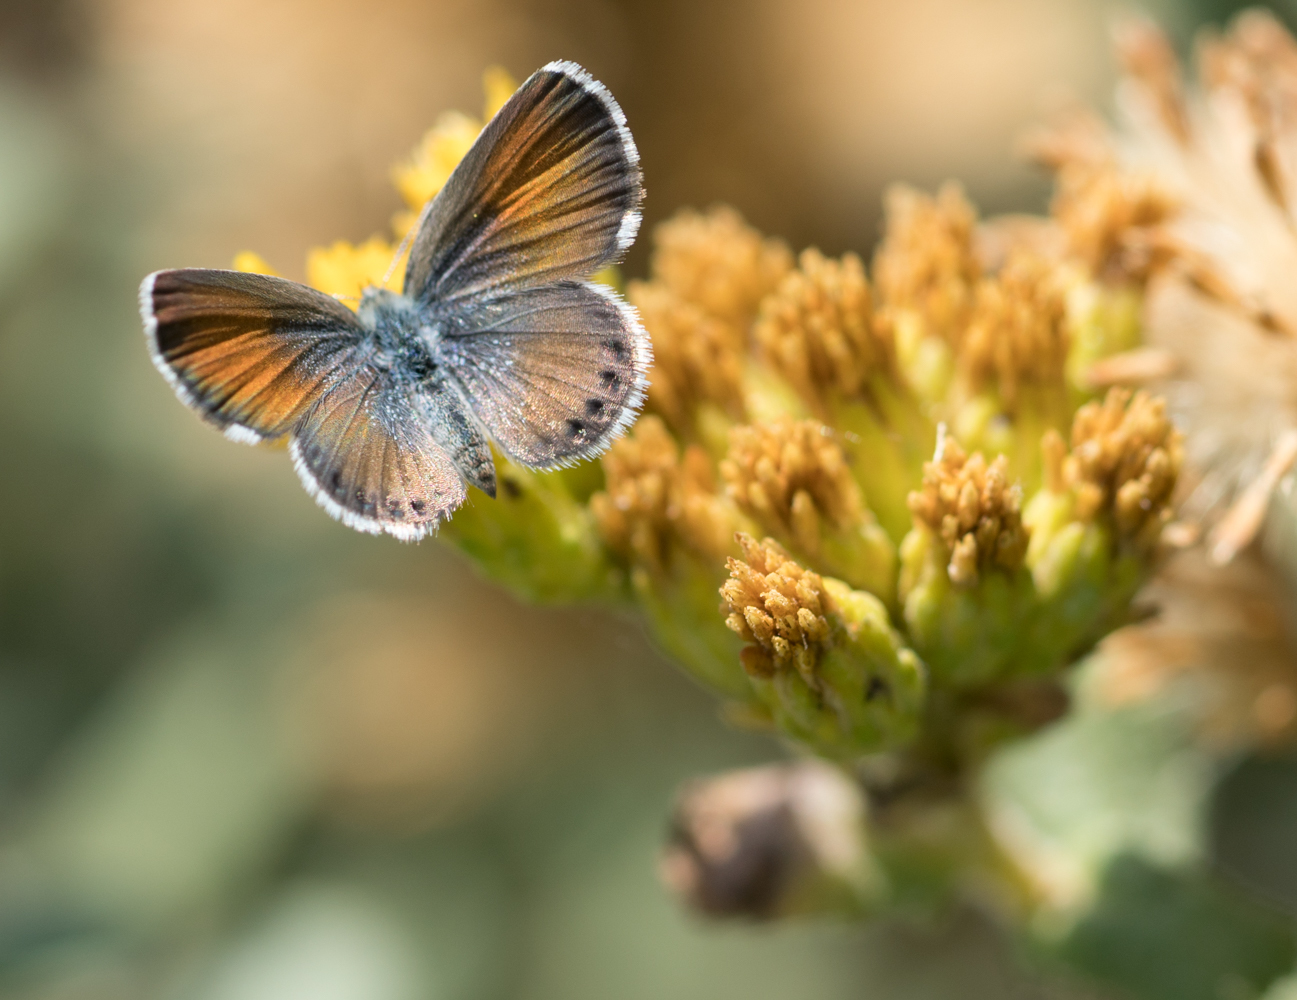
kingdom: Animalia
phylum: Arthropoda
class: Insecta
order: Lepidoptera
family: Lycaenidae
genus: Brephidium
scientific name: Brephidium exilis
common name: Pygmy blue
